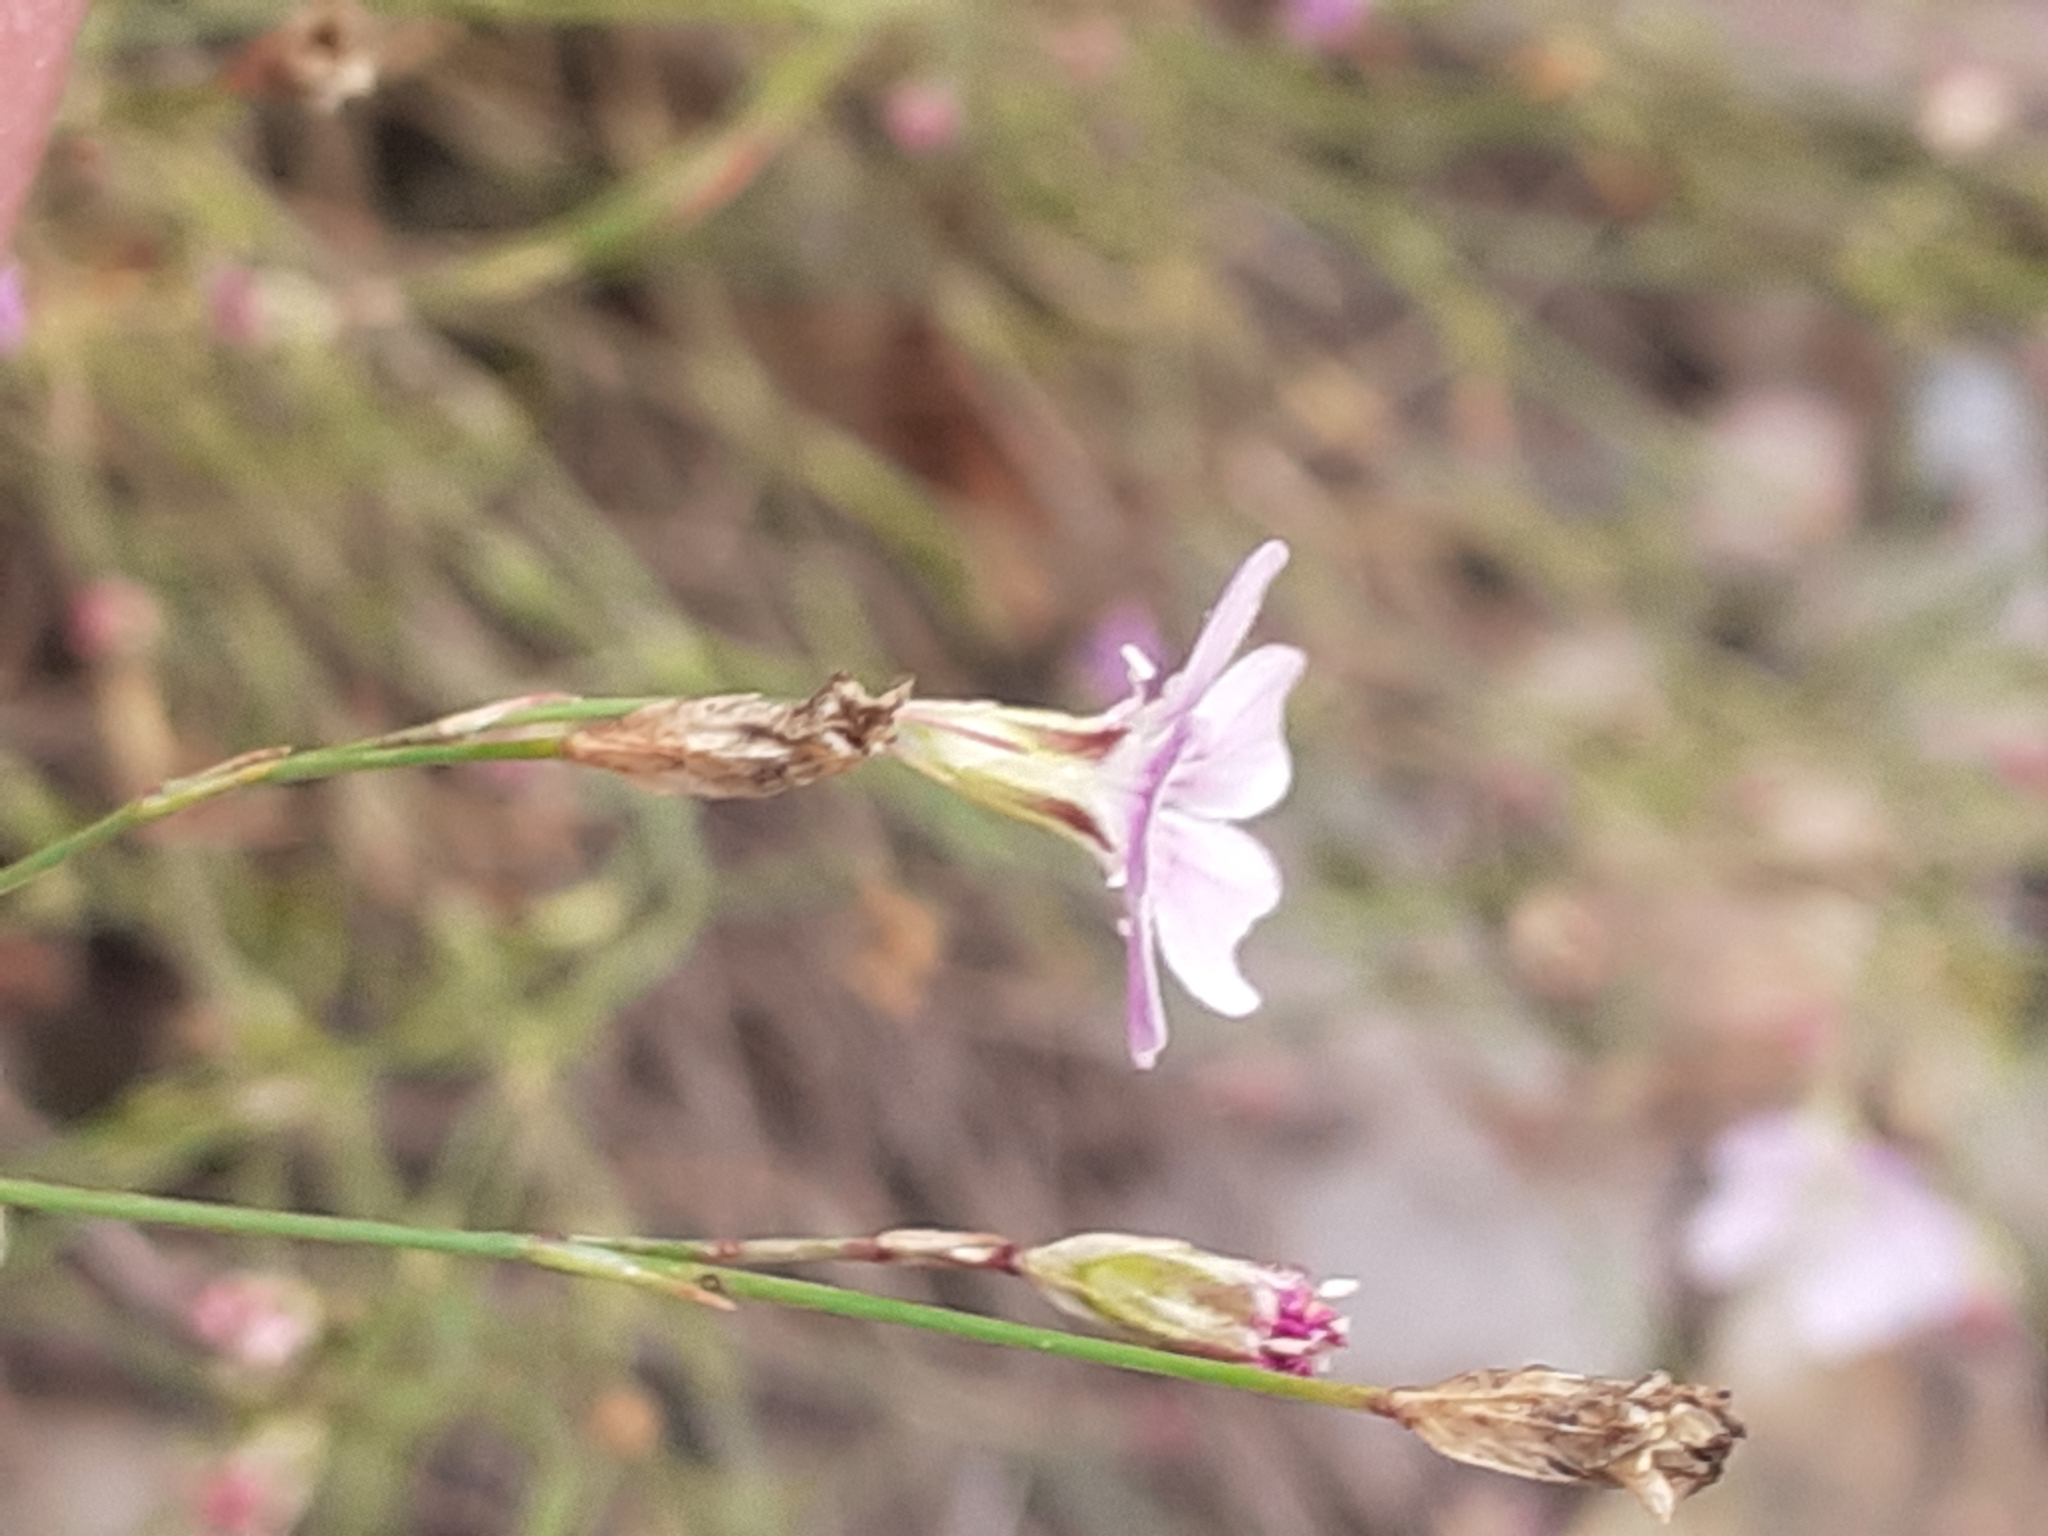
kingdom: Plantae
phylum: Tracheophyta
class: Magnoliopsida
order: Caryophyllales
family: Caryophyllaceae
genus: Petrorhagia
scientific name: Petrorhagia saxifraga
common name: Tunicflower
